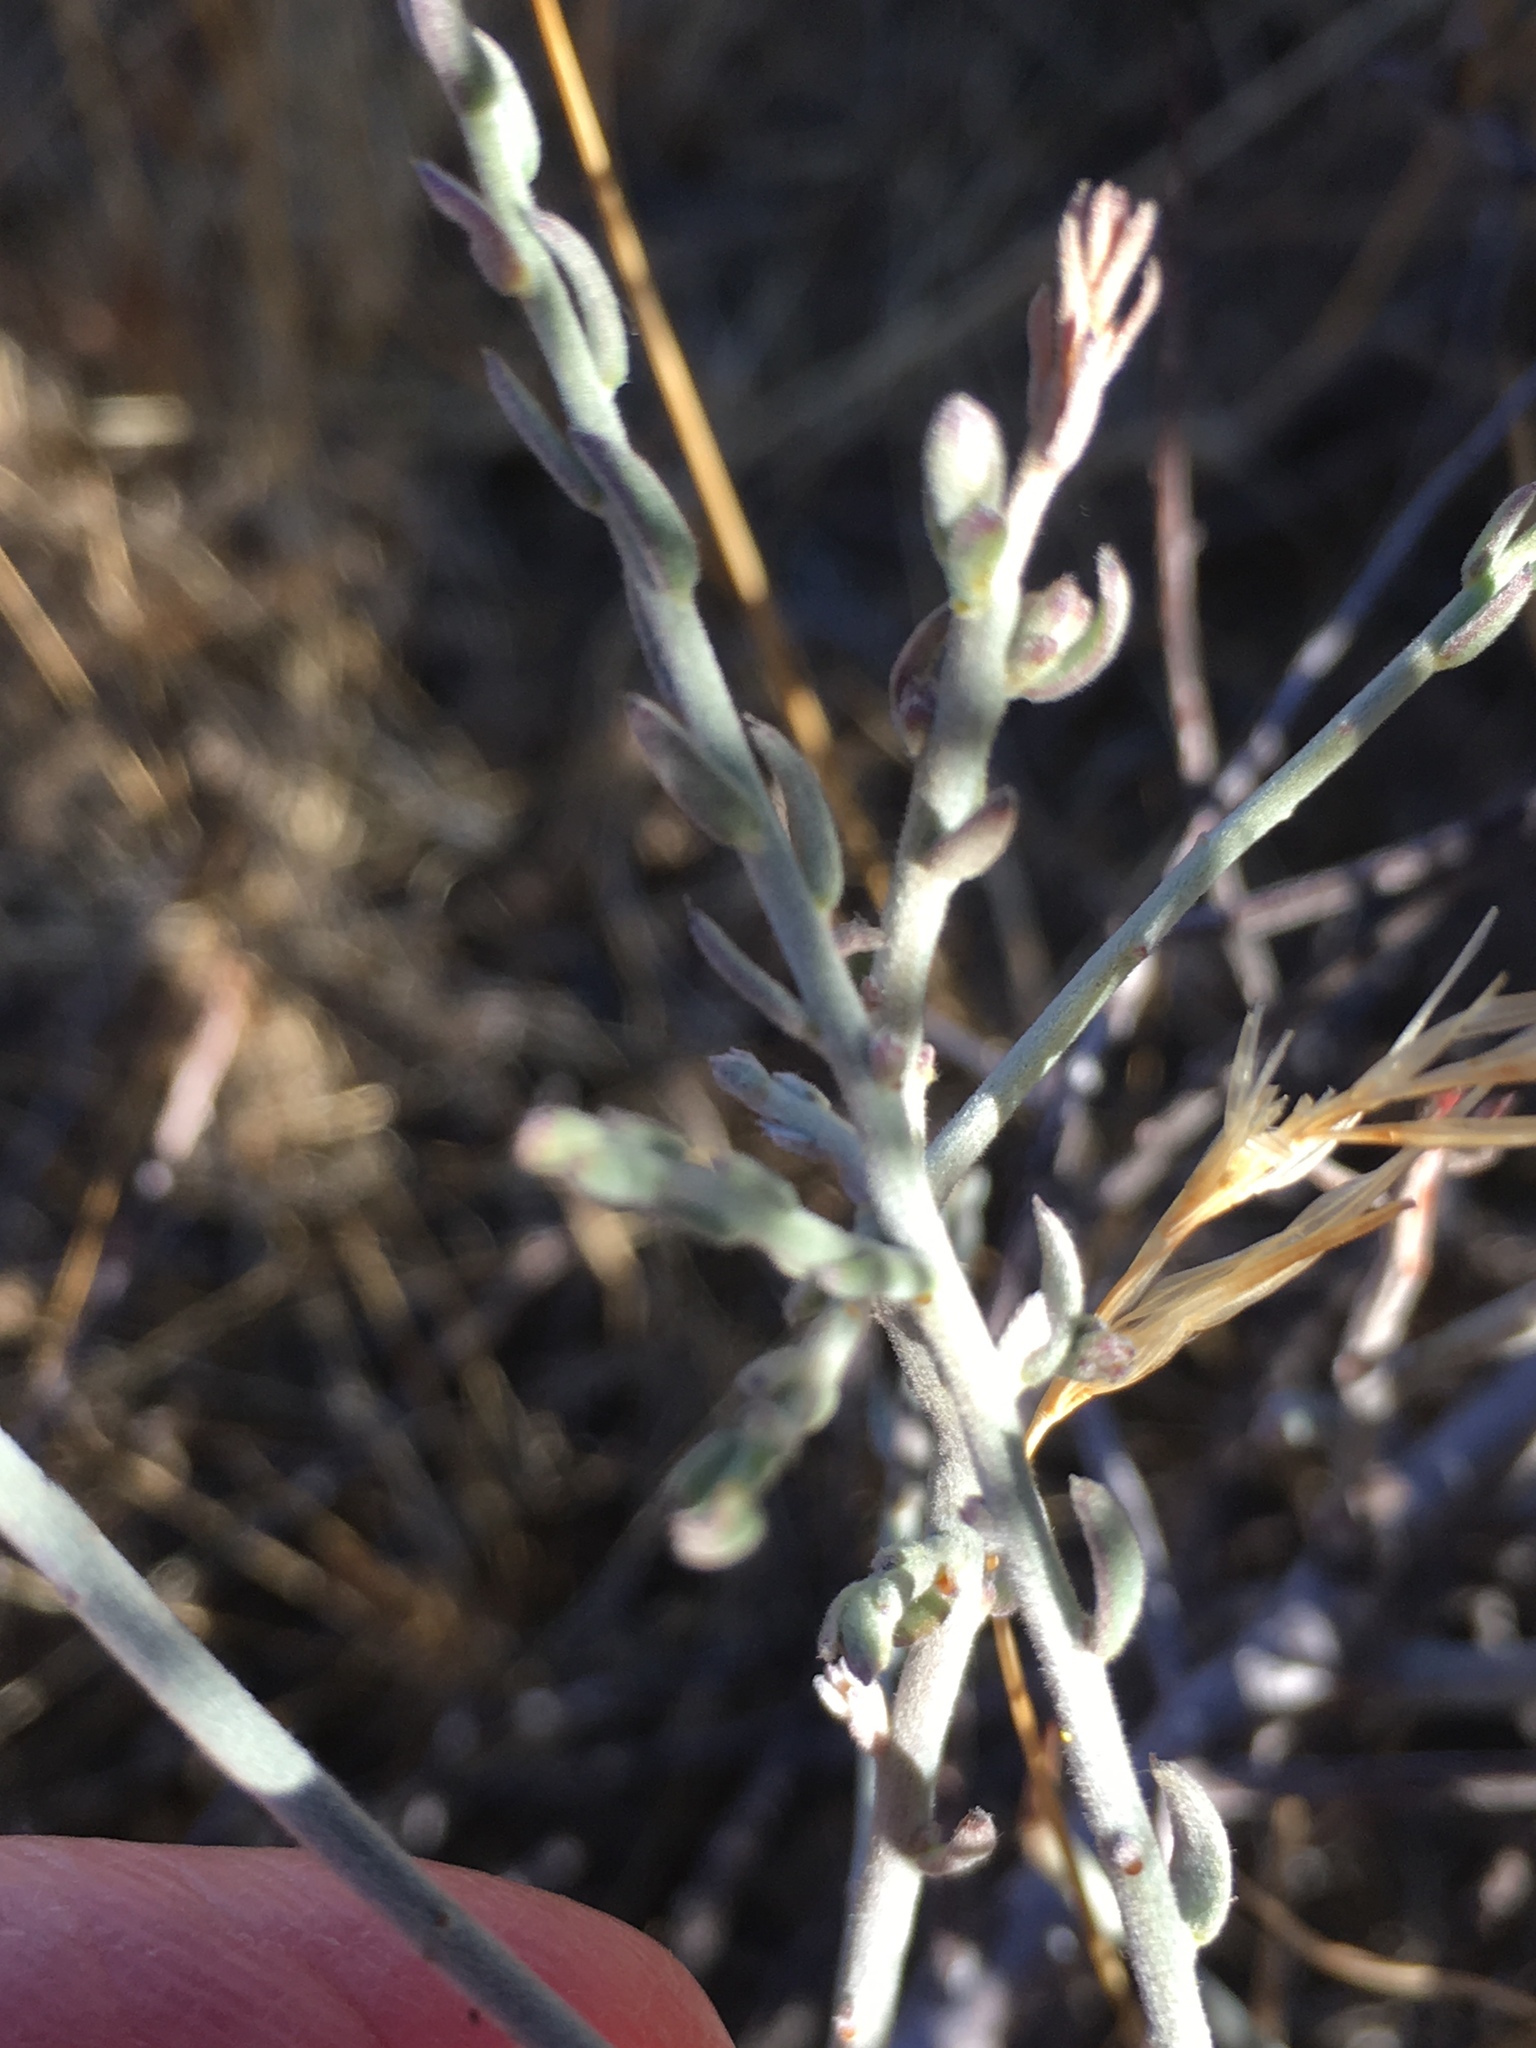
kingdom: Plantae
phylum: Tracheophyta
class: Magnoliopsida
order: Zygophyllales
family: Krameriaceae
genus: Krameria
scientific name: Krameria bicolor
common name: White ratany
